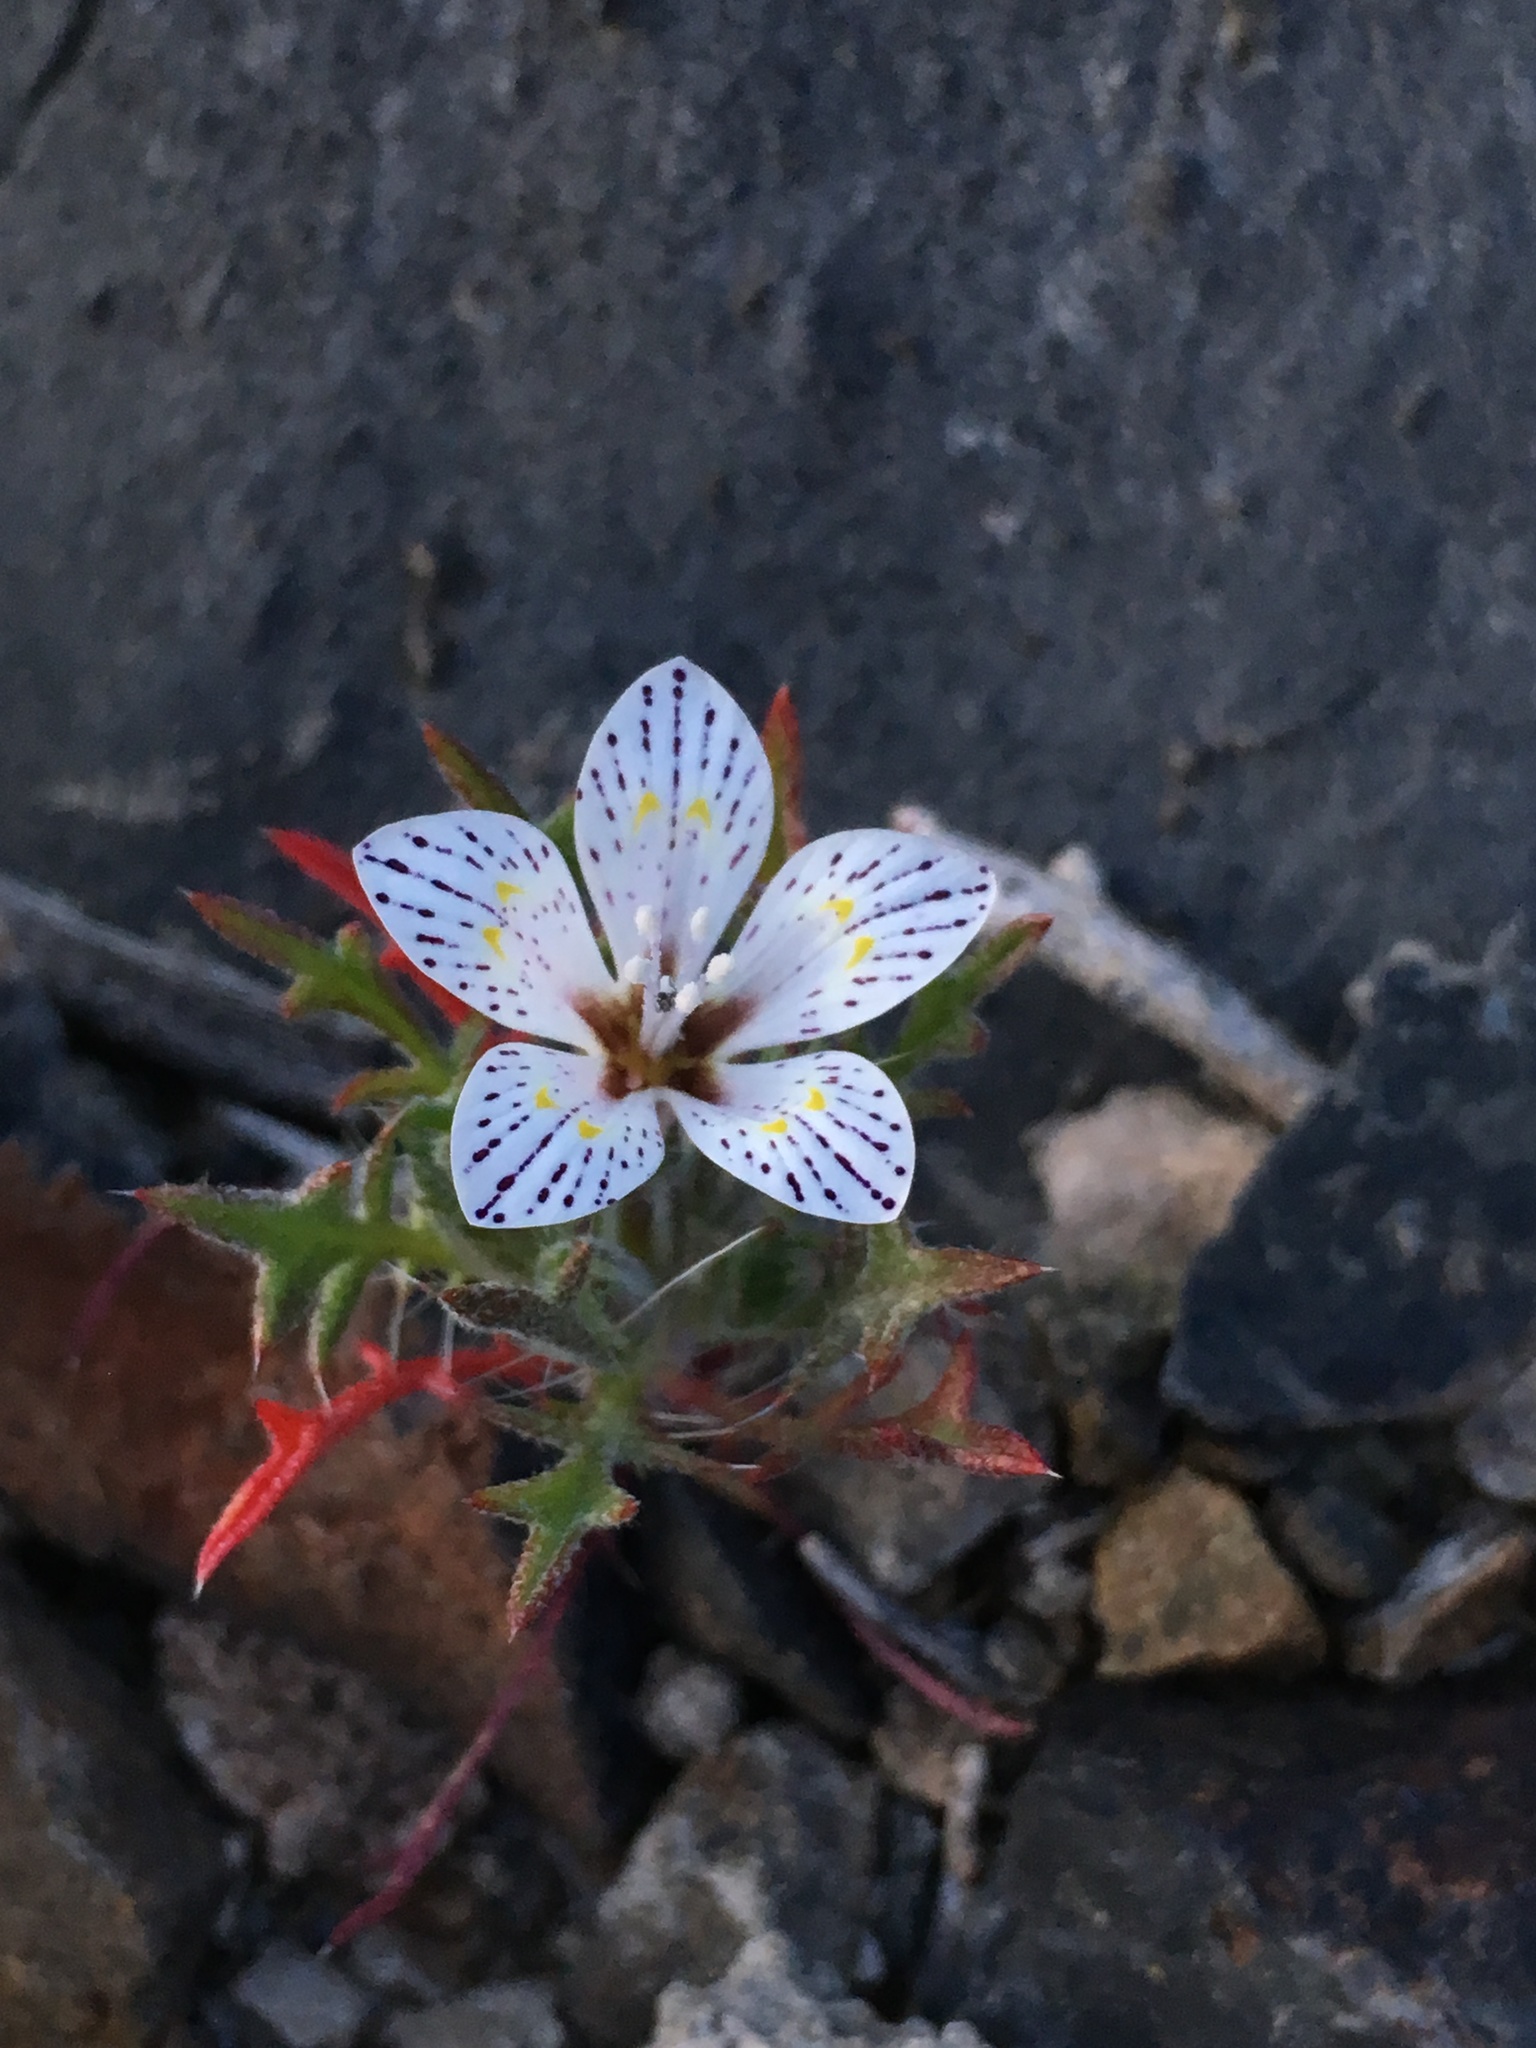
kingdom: Plantae
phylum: Tracheophyta
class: Magnoliopsida
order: Ericales
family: Polemoniaceae
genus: Langloisia
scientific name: Langloisia setosissima
